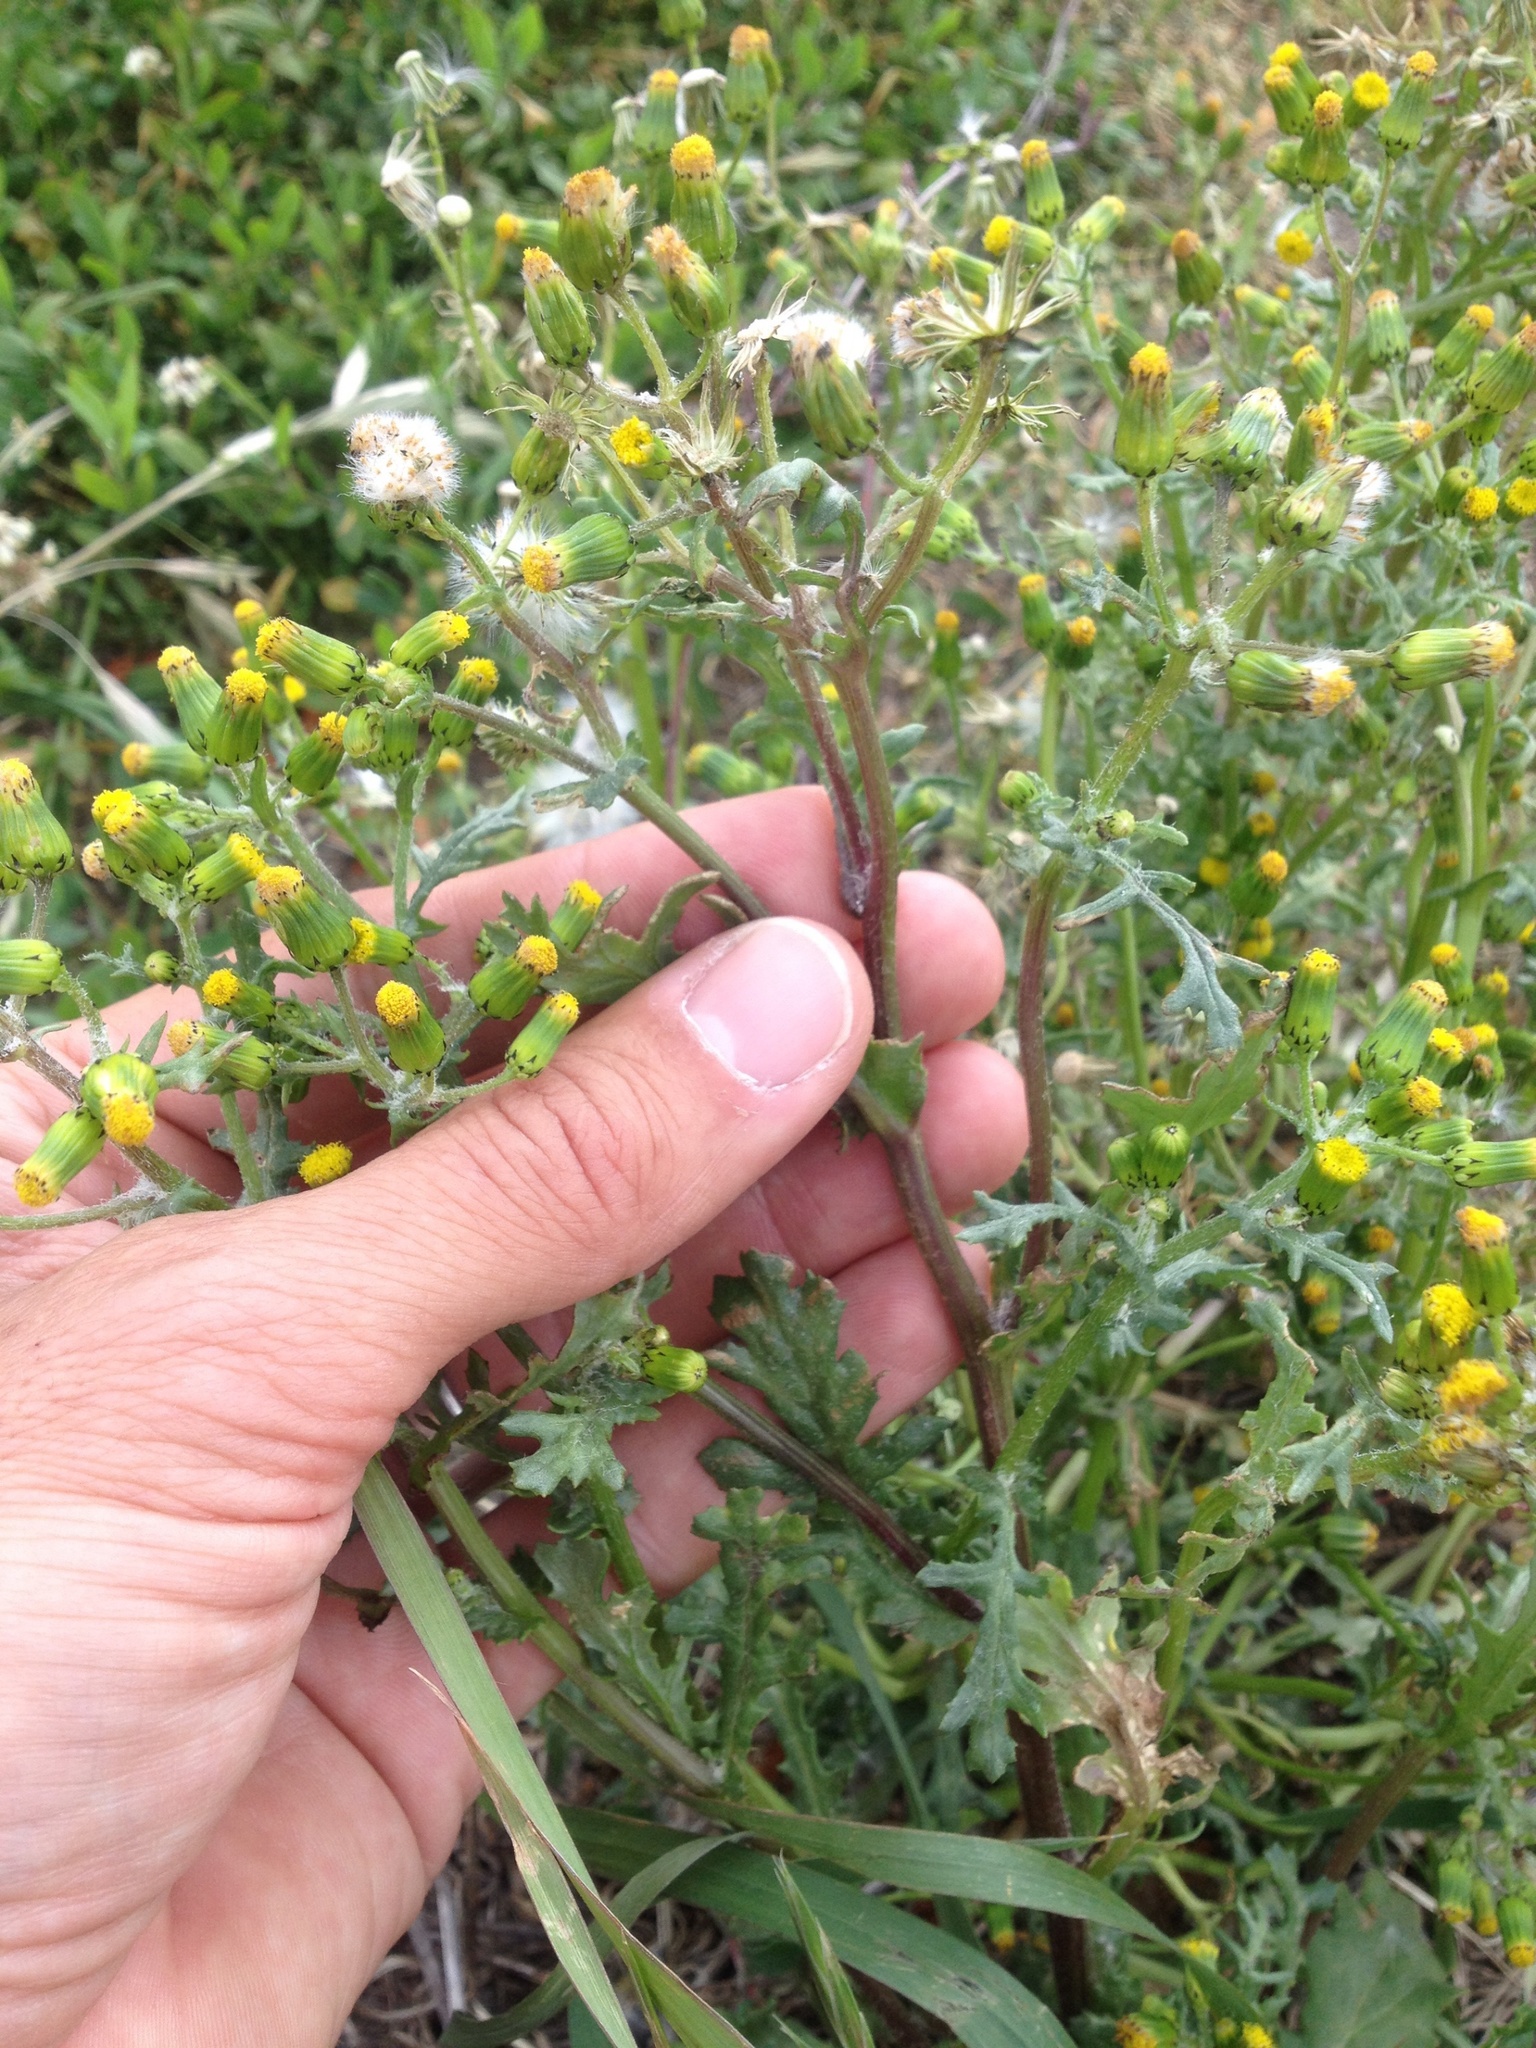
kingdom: Plantae
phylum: Tracheophyta
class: Magnoliopsida
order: Asterales
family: Asteraceae
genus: Senecio
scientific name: Senecio vulgaris
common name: Old-man-in-the-spring
